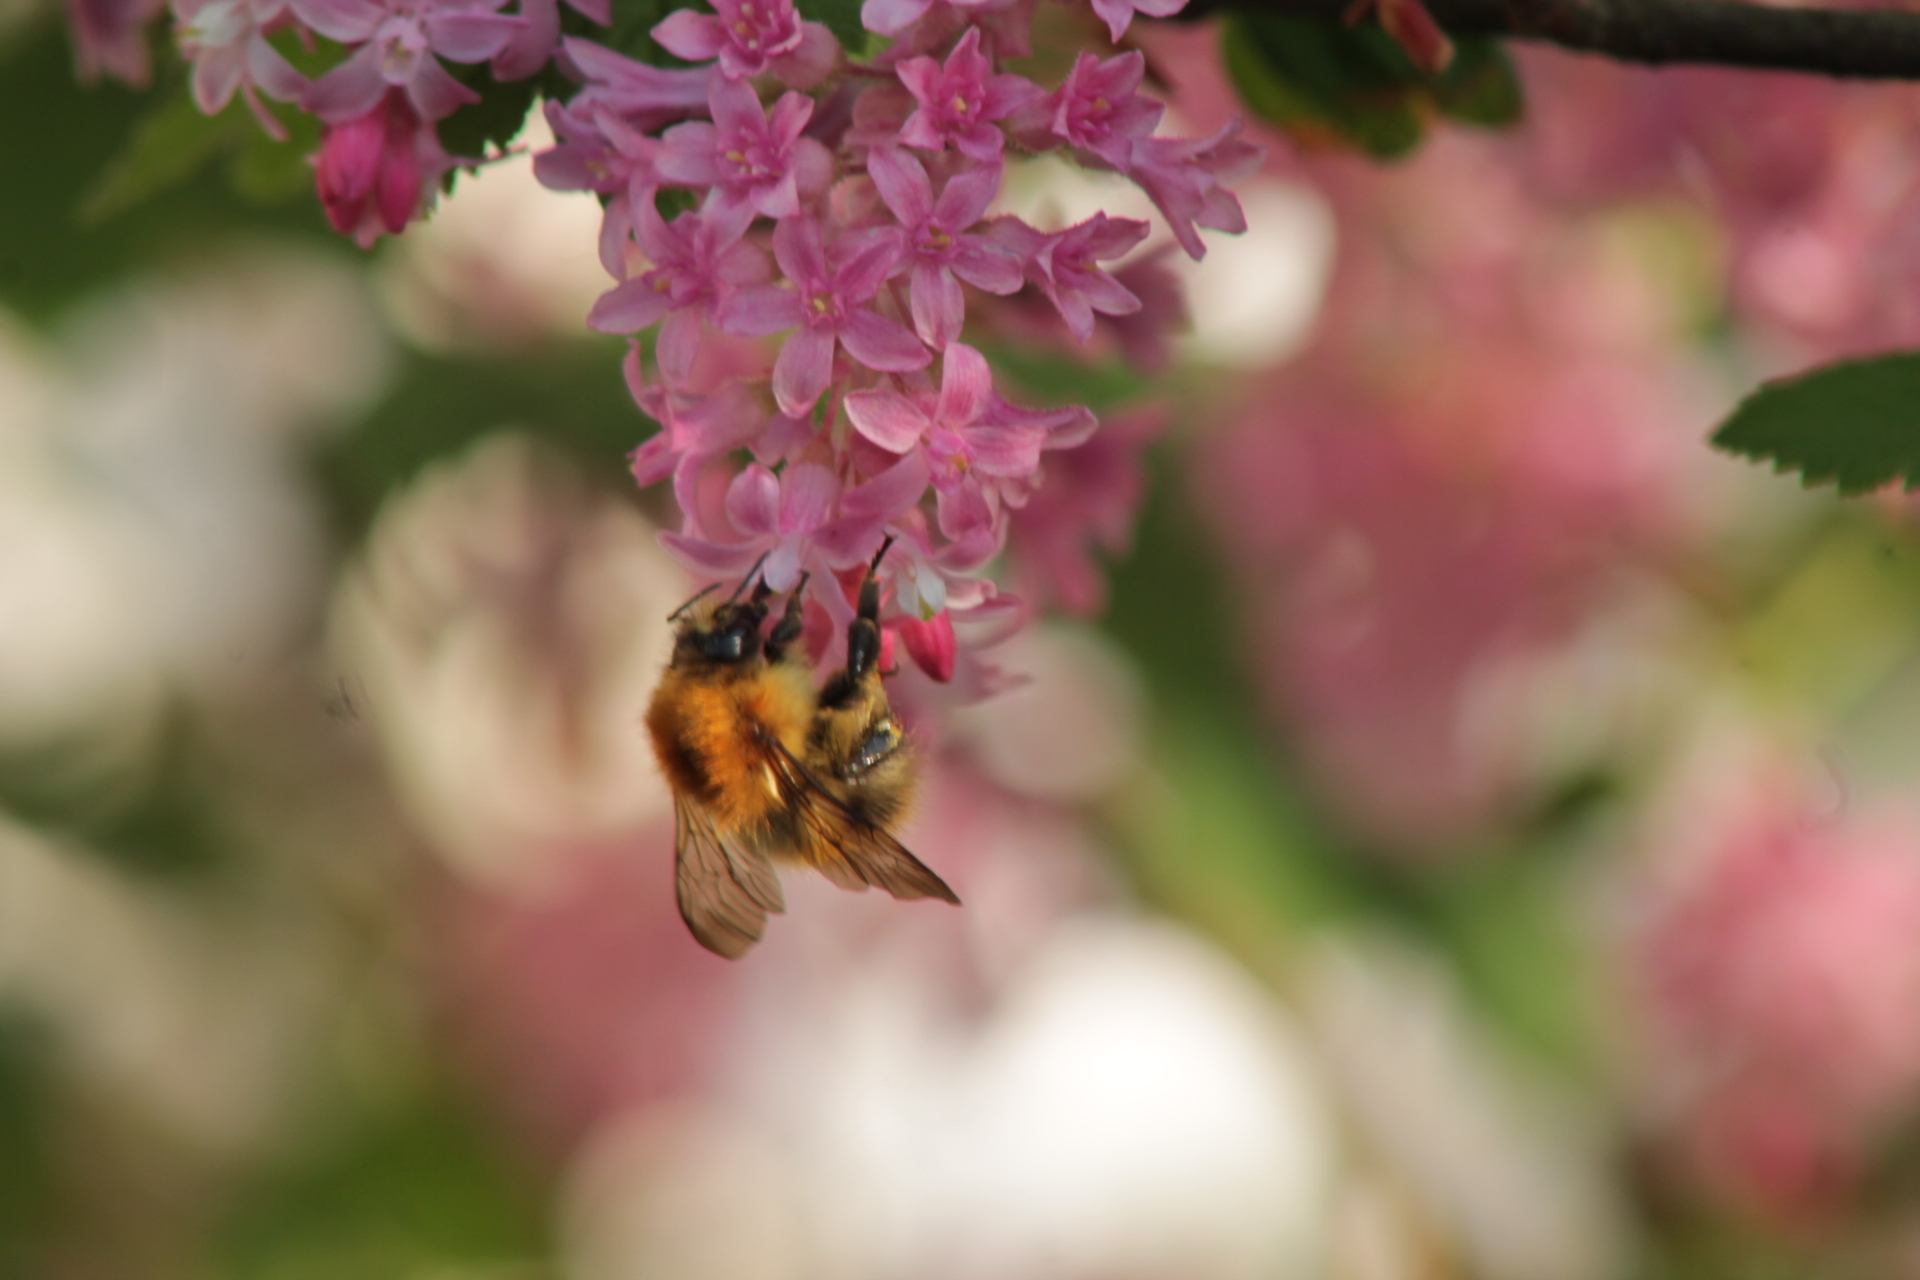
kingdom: Animalia
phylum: Arthropoda
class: Insecta
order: Hymenoptera
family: Apidae
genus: Bombus
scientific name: Bombus pascuorum
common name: Common carder bee
